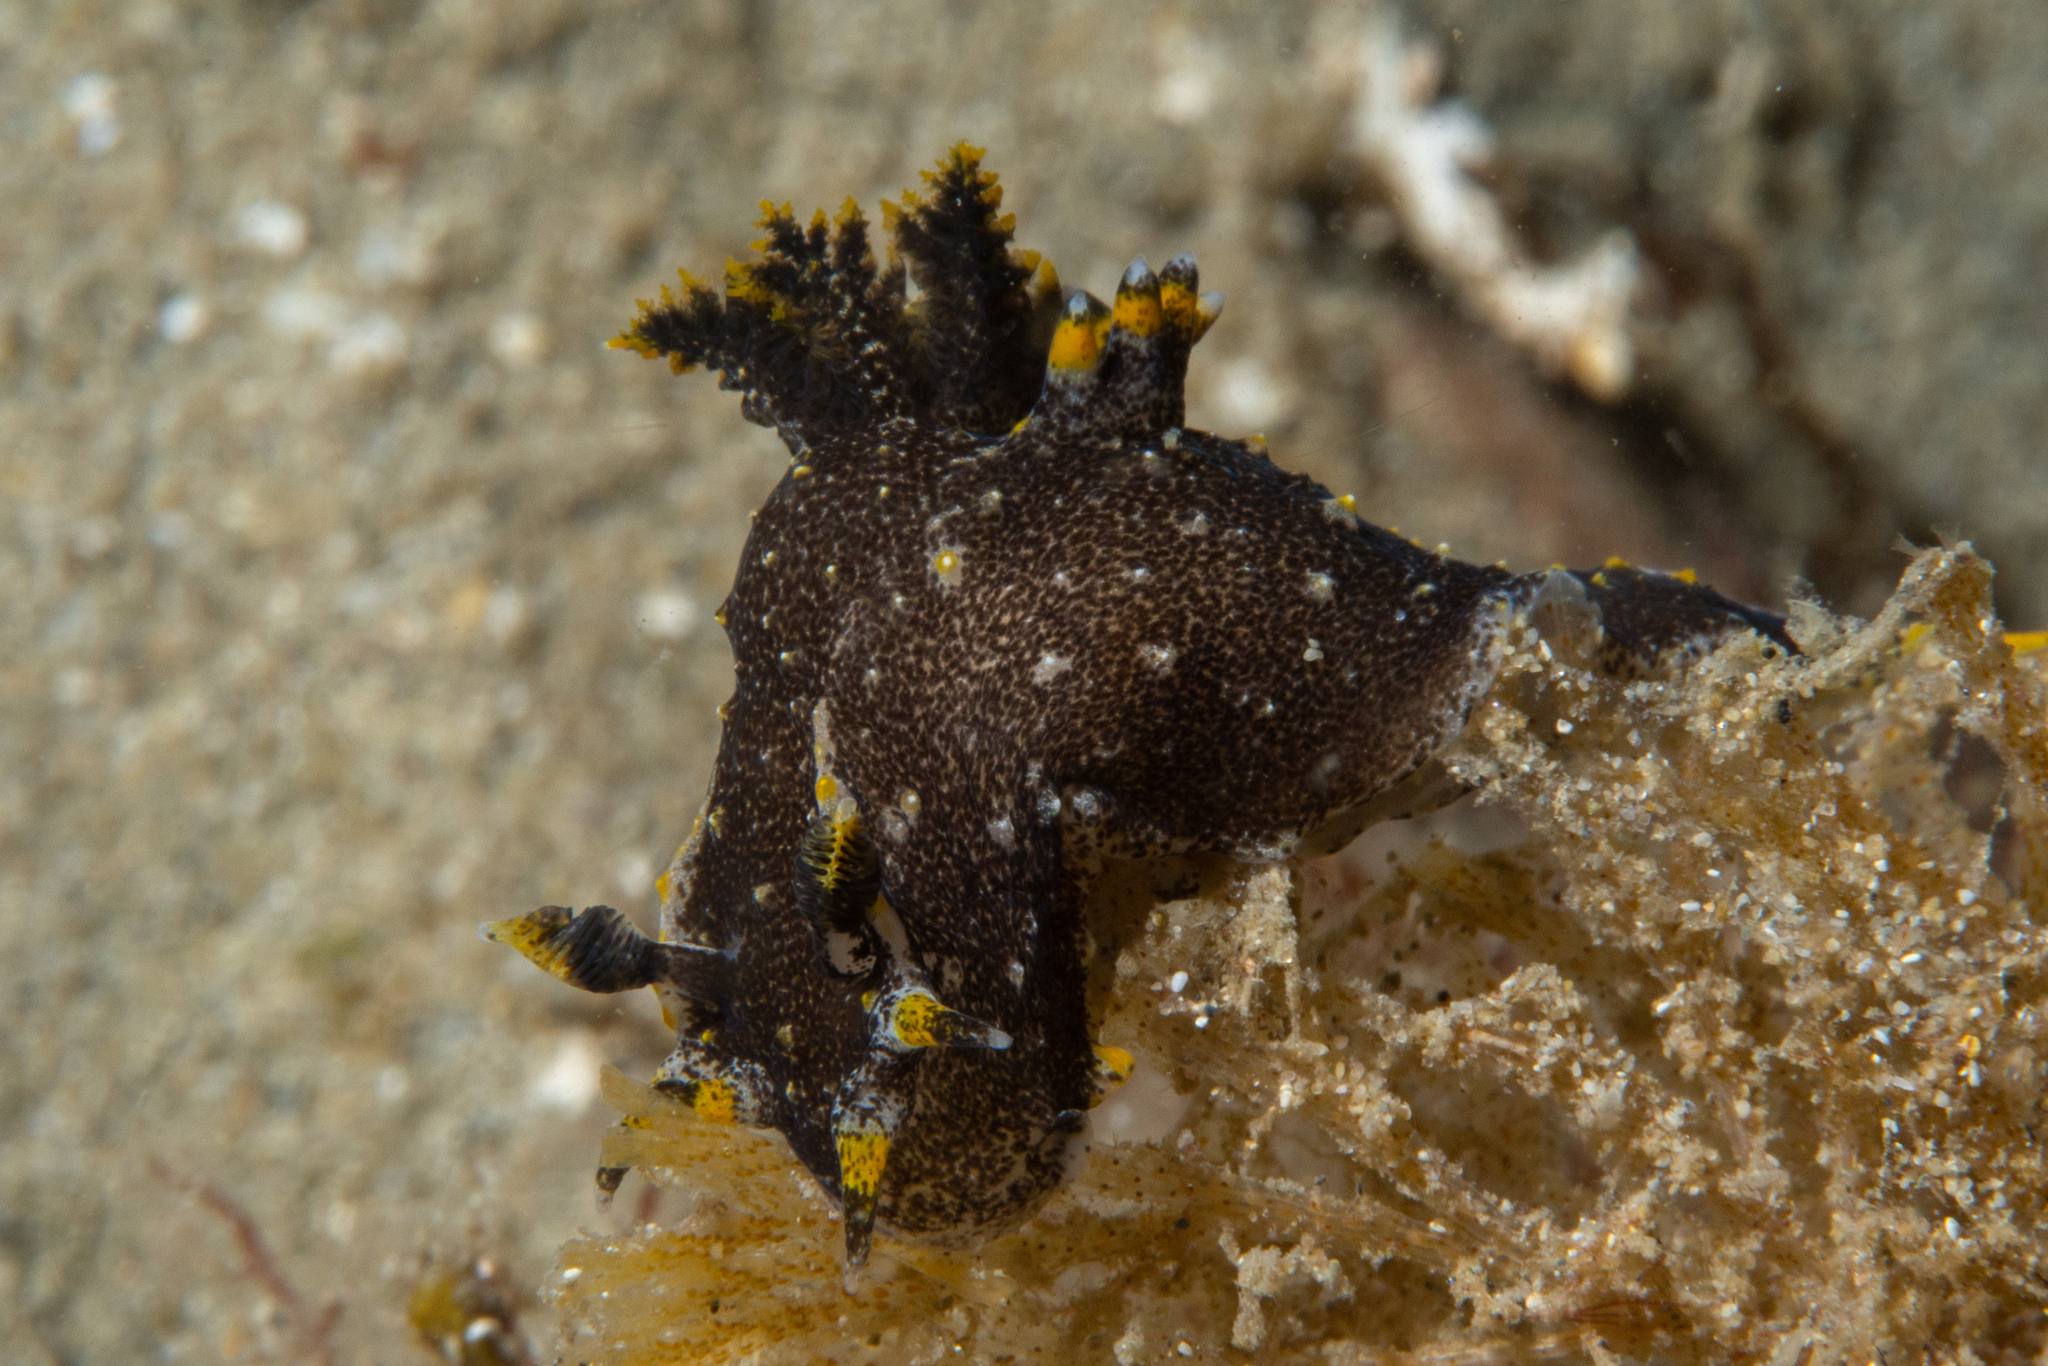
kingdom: Animalia
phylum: Mollusca
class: Gastropoda
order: Nudibranchia
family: Polyceridae
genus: Polycera
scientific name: Polycera hedgpethi
